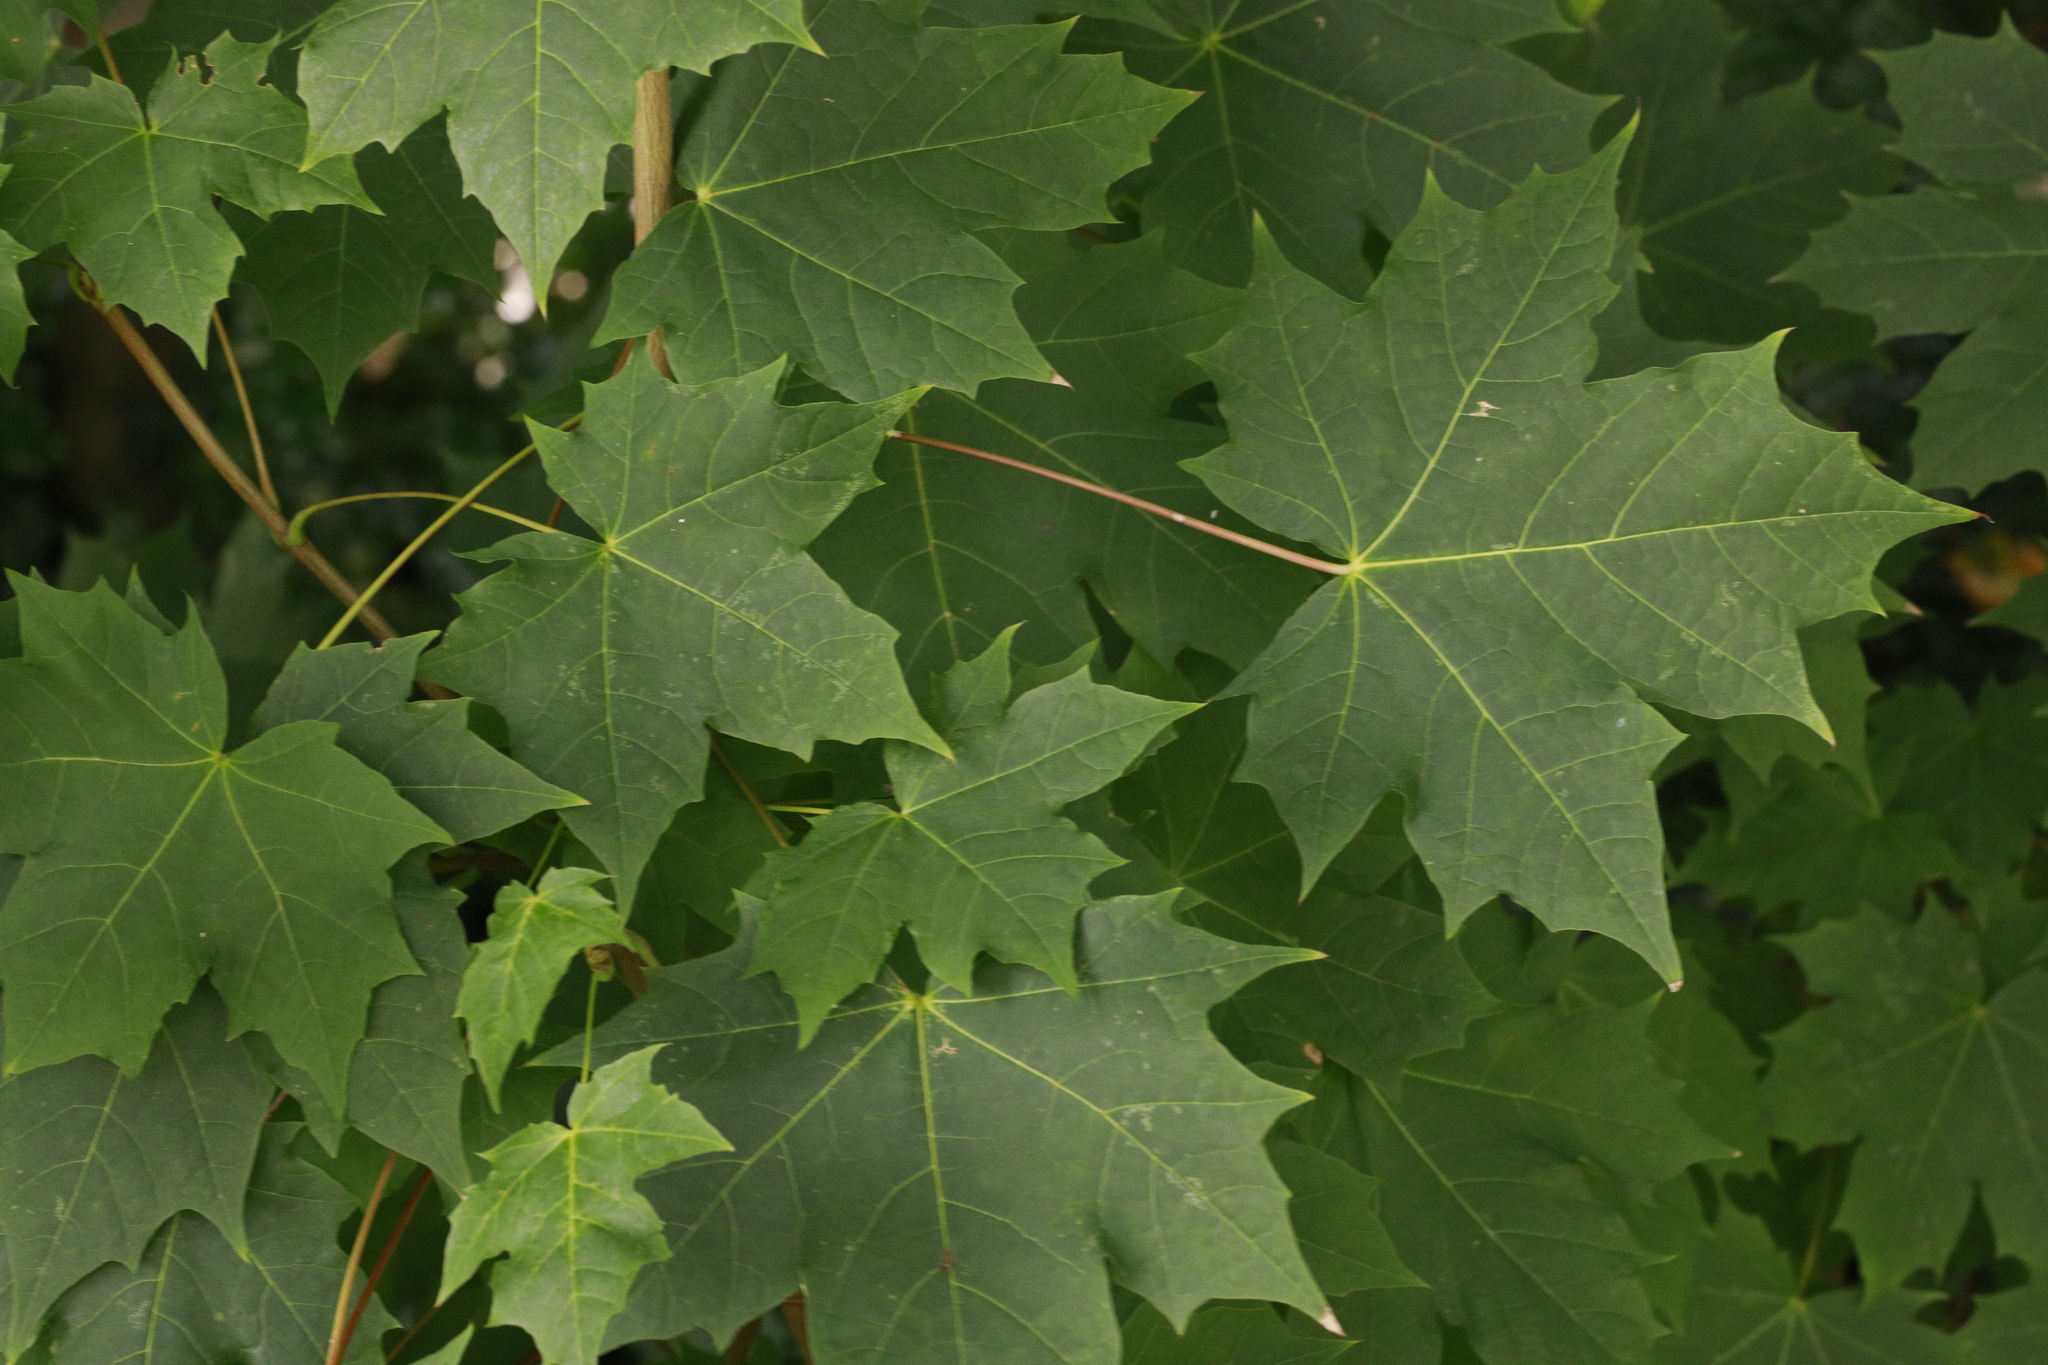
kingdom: Plantae
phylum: Tracheophyta
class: Magnoliopsida
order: Sapindales
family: Sapindaceae
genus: Acer
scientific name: Acer platanoides
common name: Norway maple
